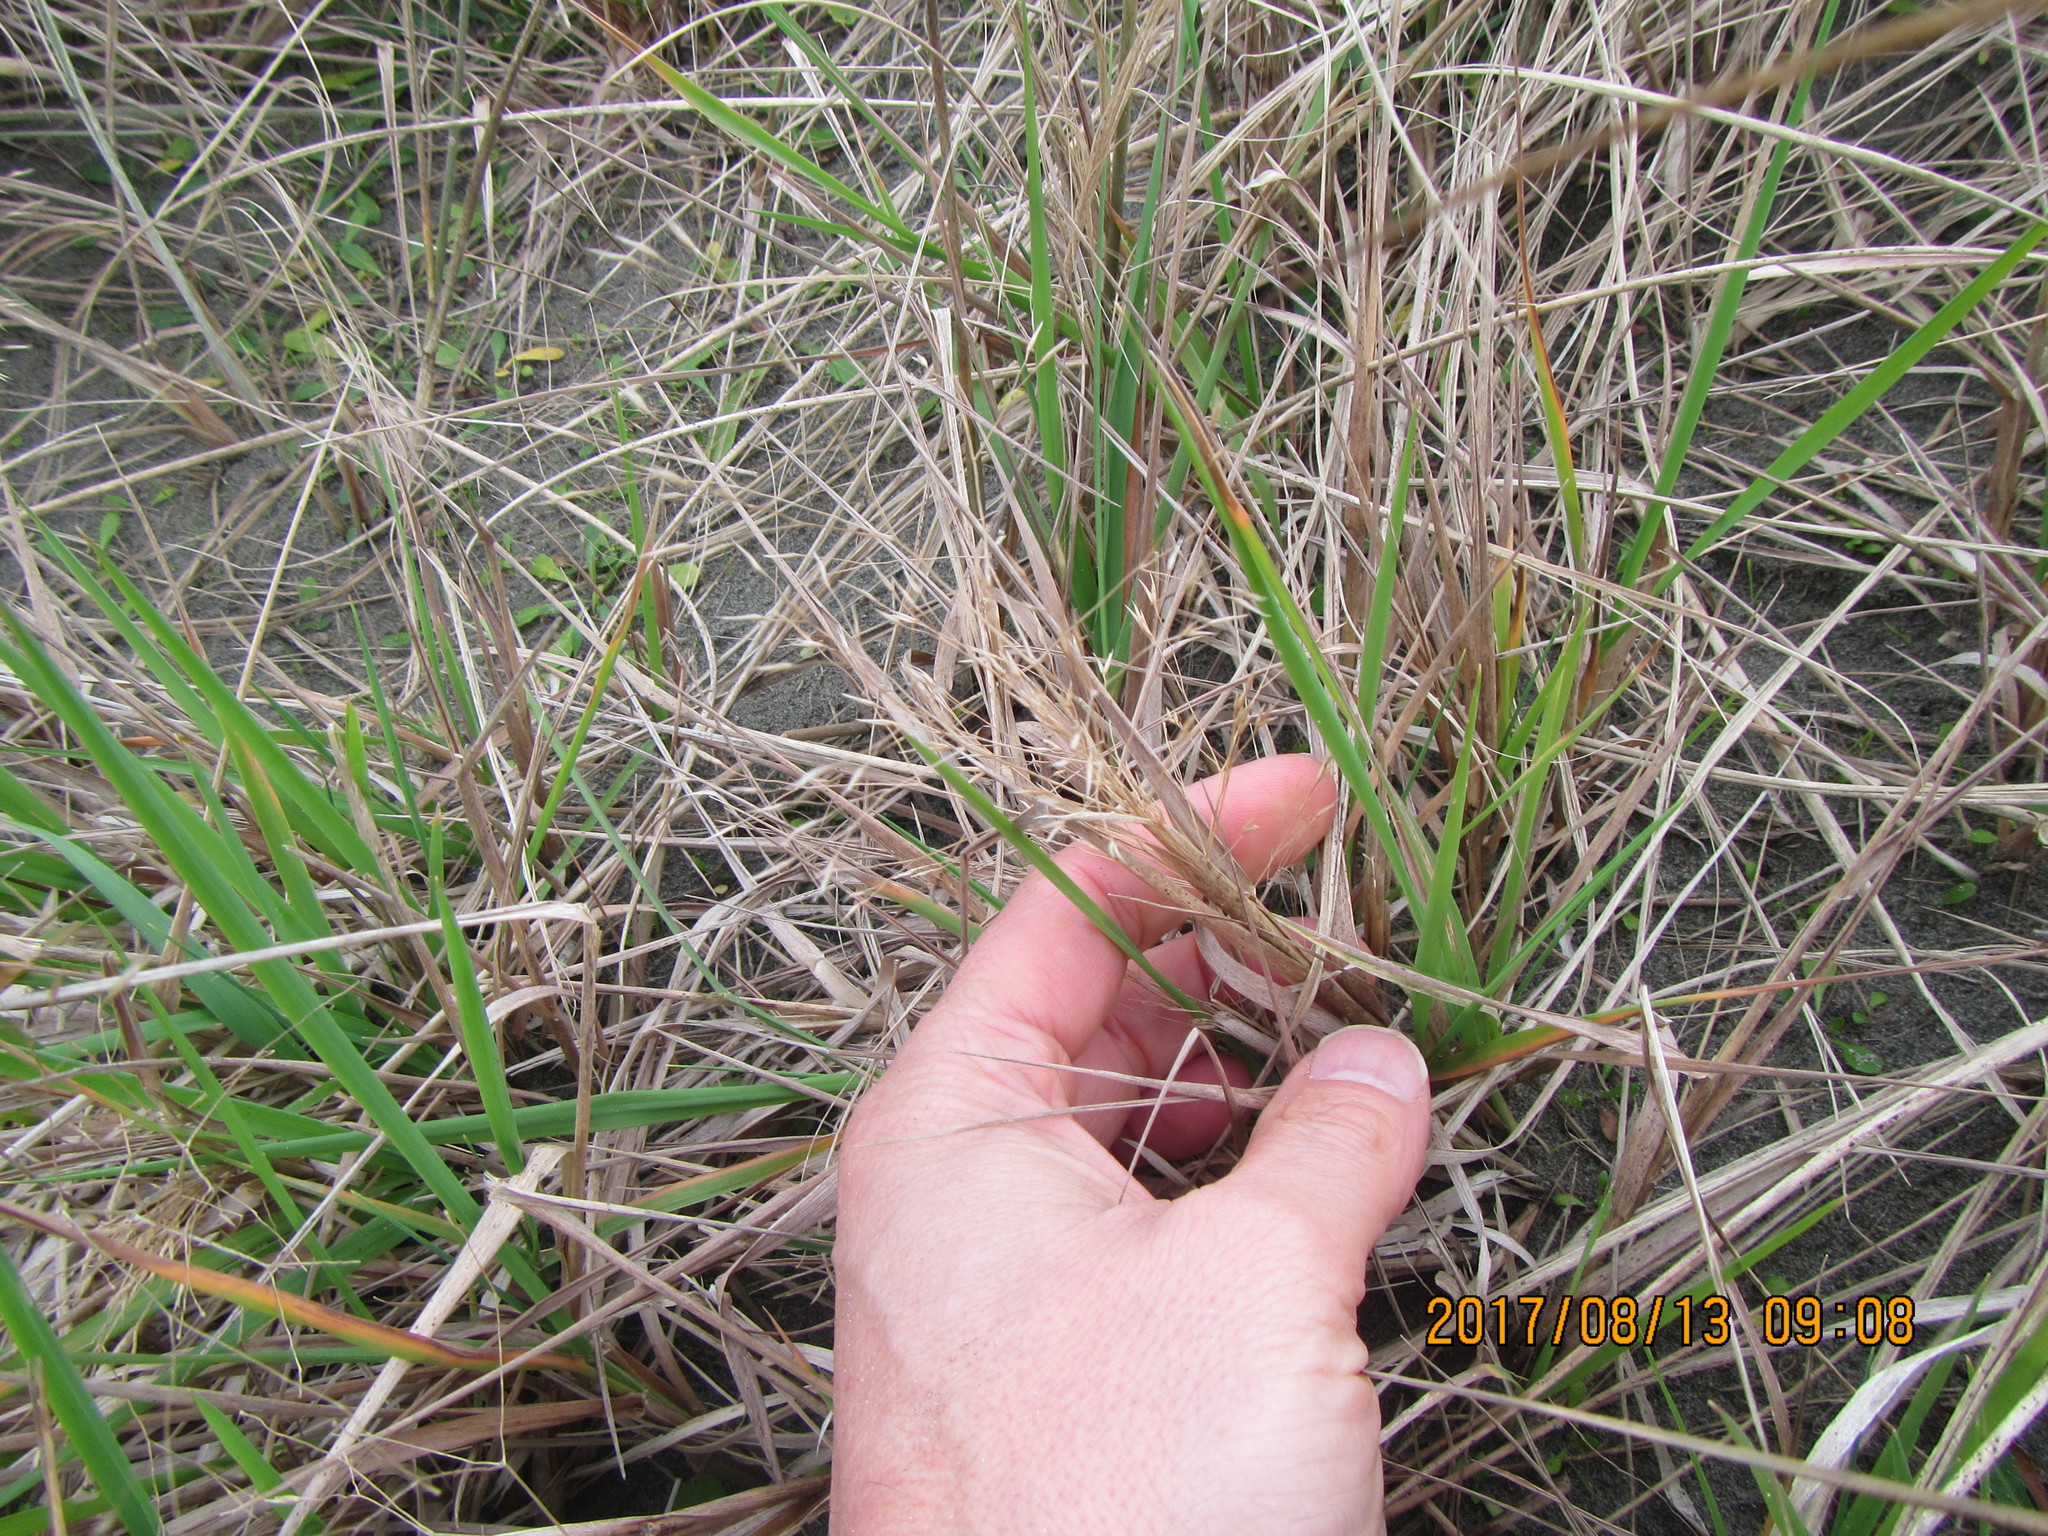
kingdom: Plantae
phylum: Tracheophyta
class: Liliopsida
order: Poales
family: Poaceae
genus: Lachnagrostis
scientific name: Lachnagrostis billardierei
